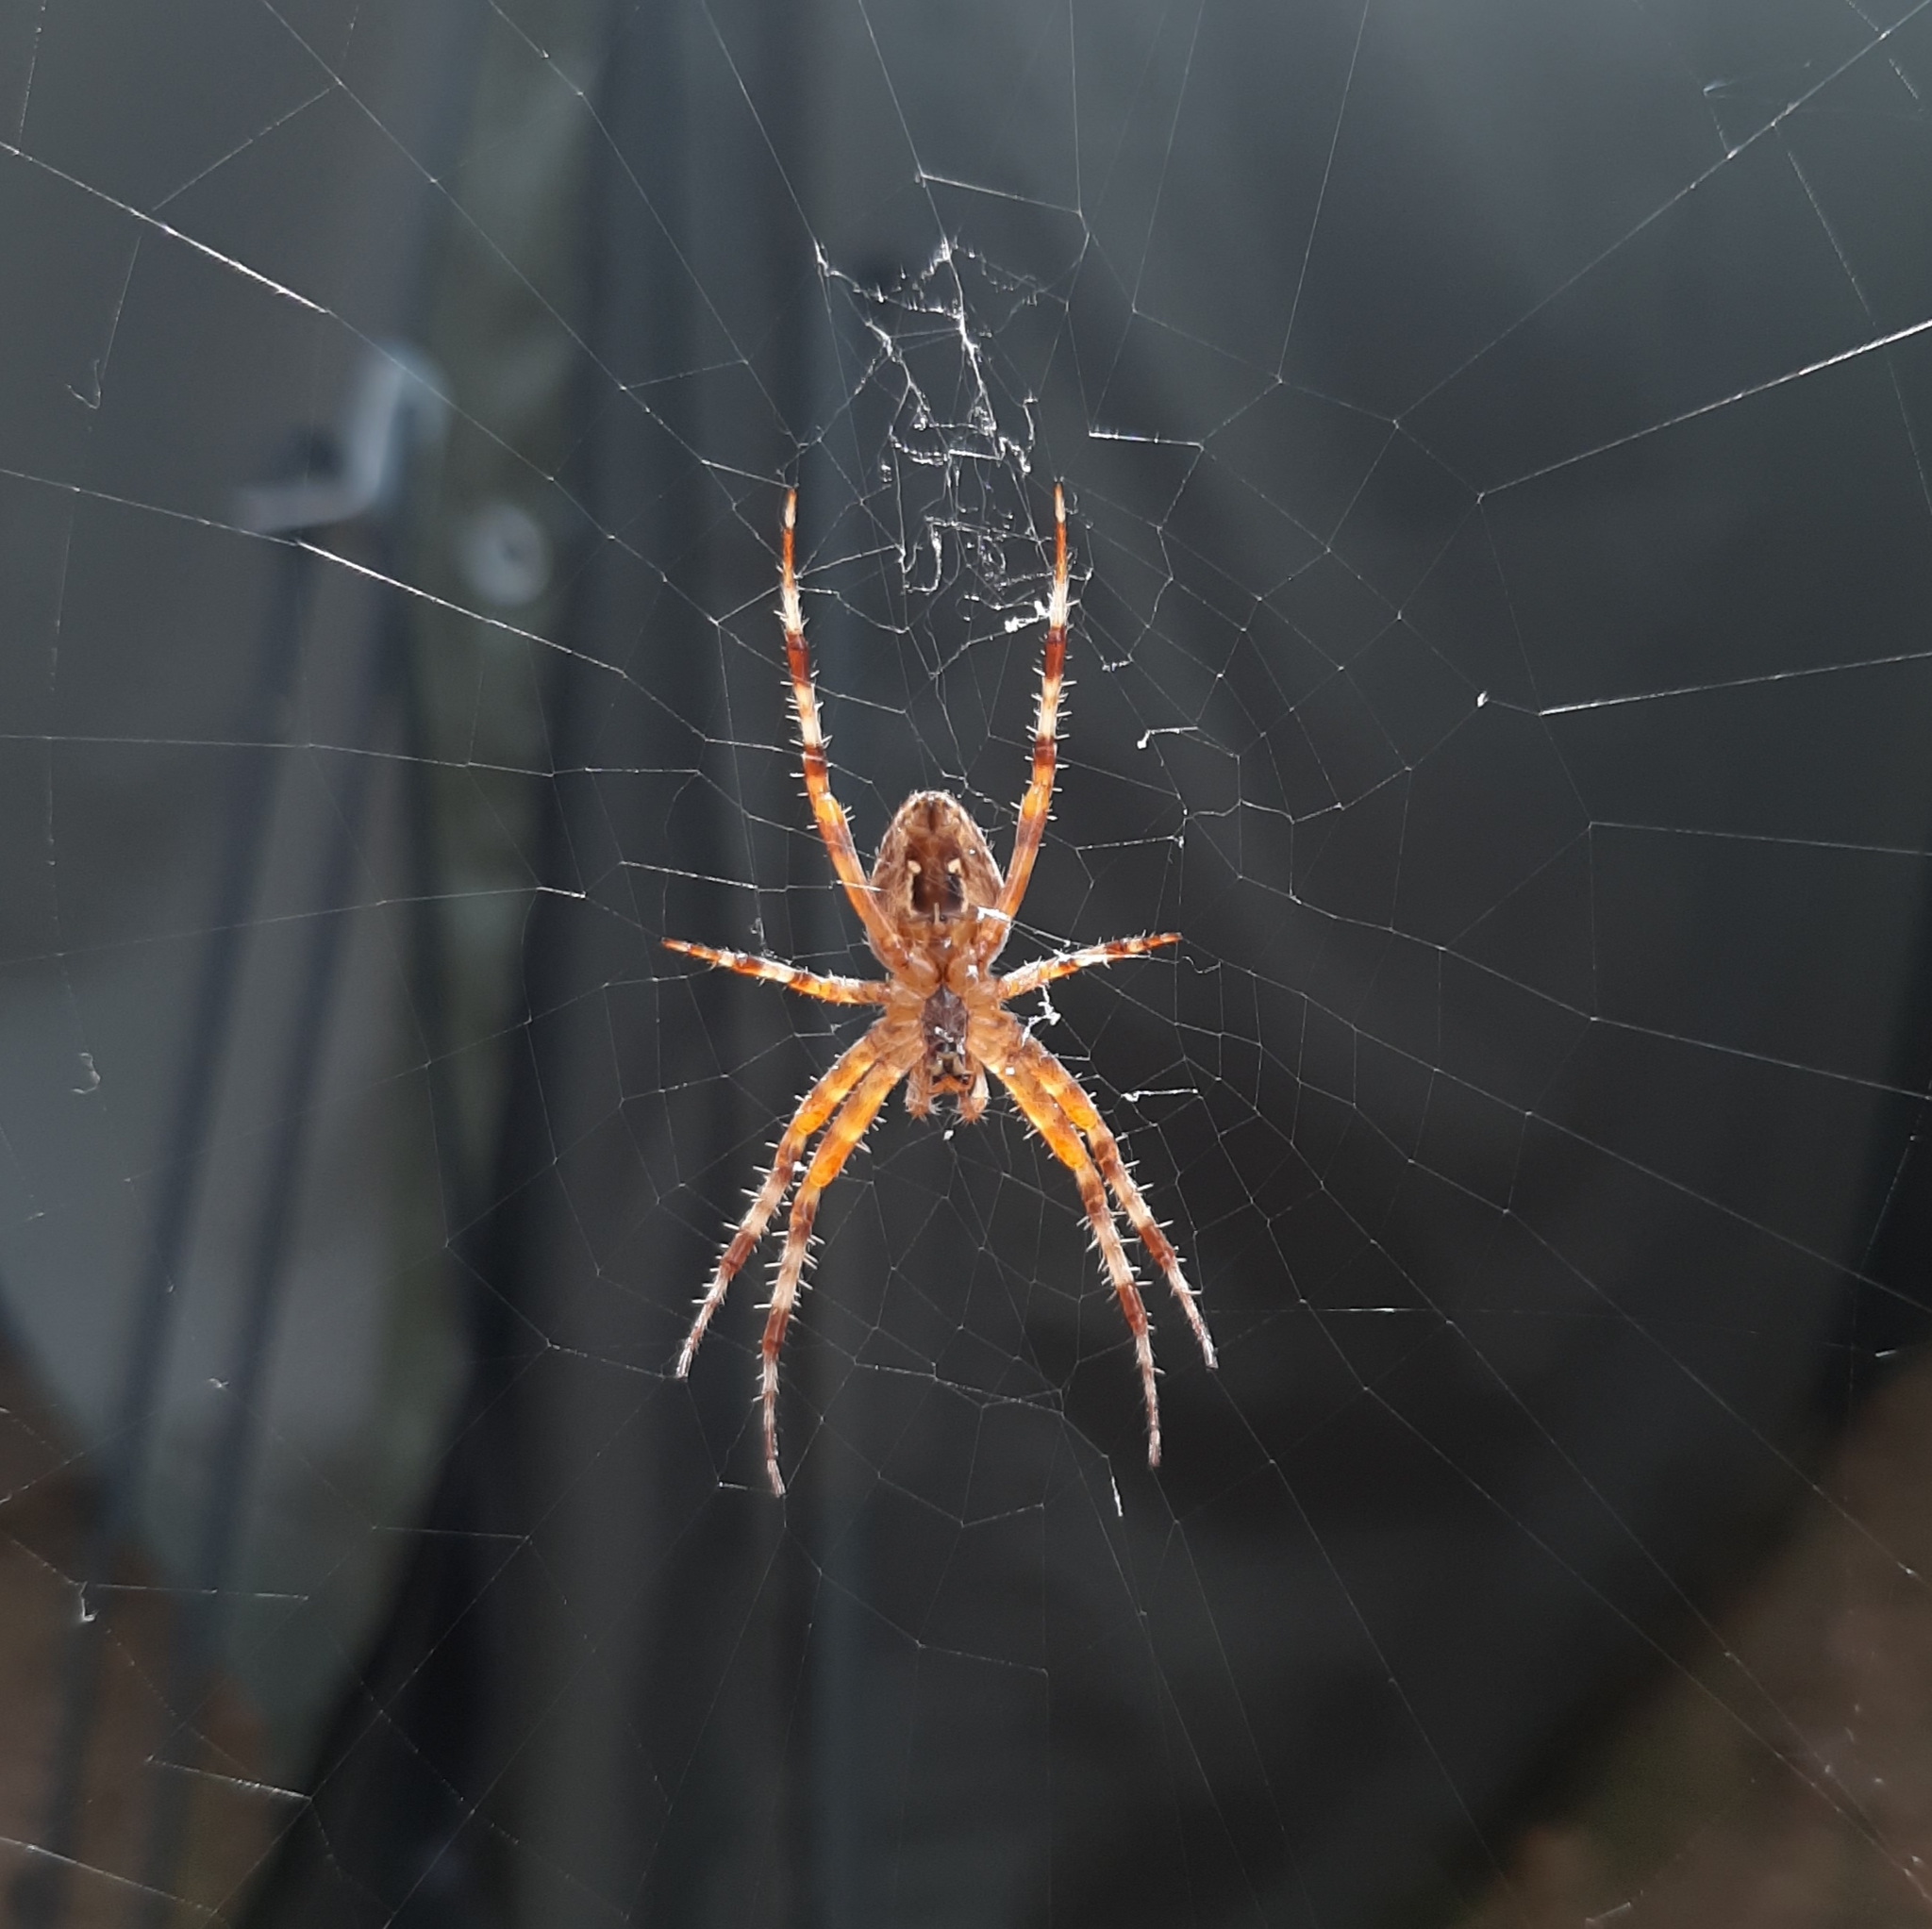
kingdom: Animalia
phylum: Arthropoda
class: Arachnida
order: Araneae
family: Araneidae
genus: Araneus
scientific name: Araneus diadematus
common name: Cross orbweaver
